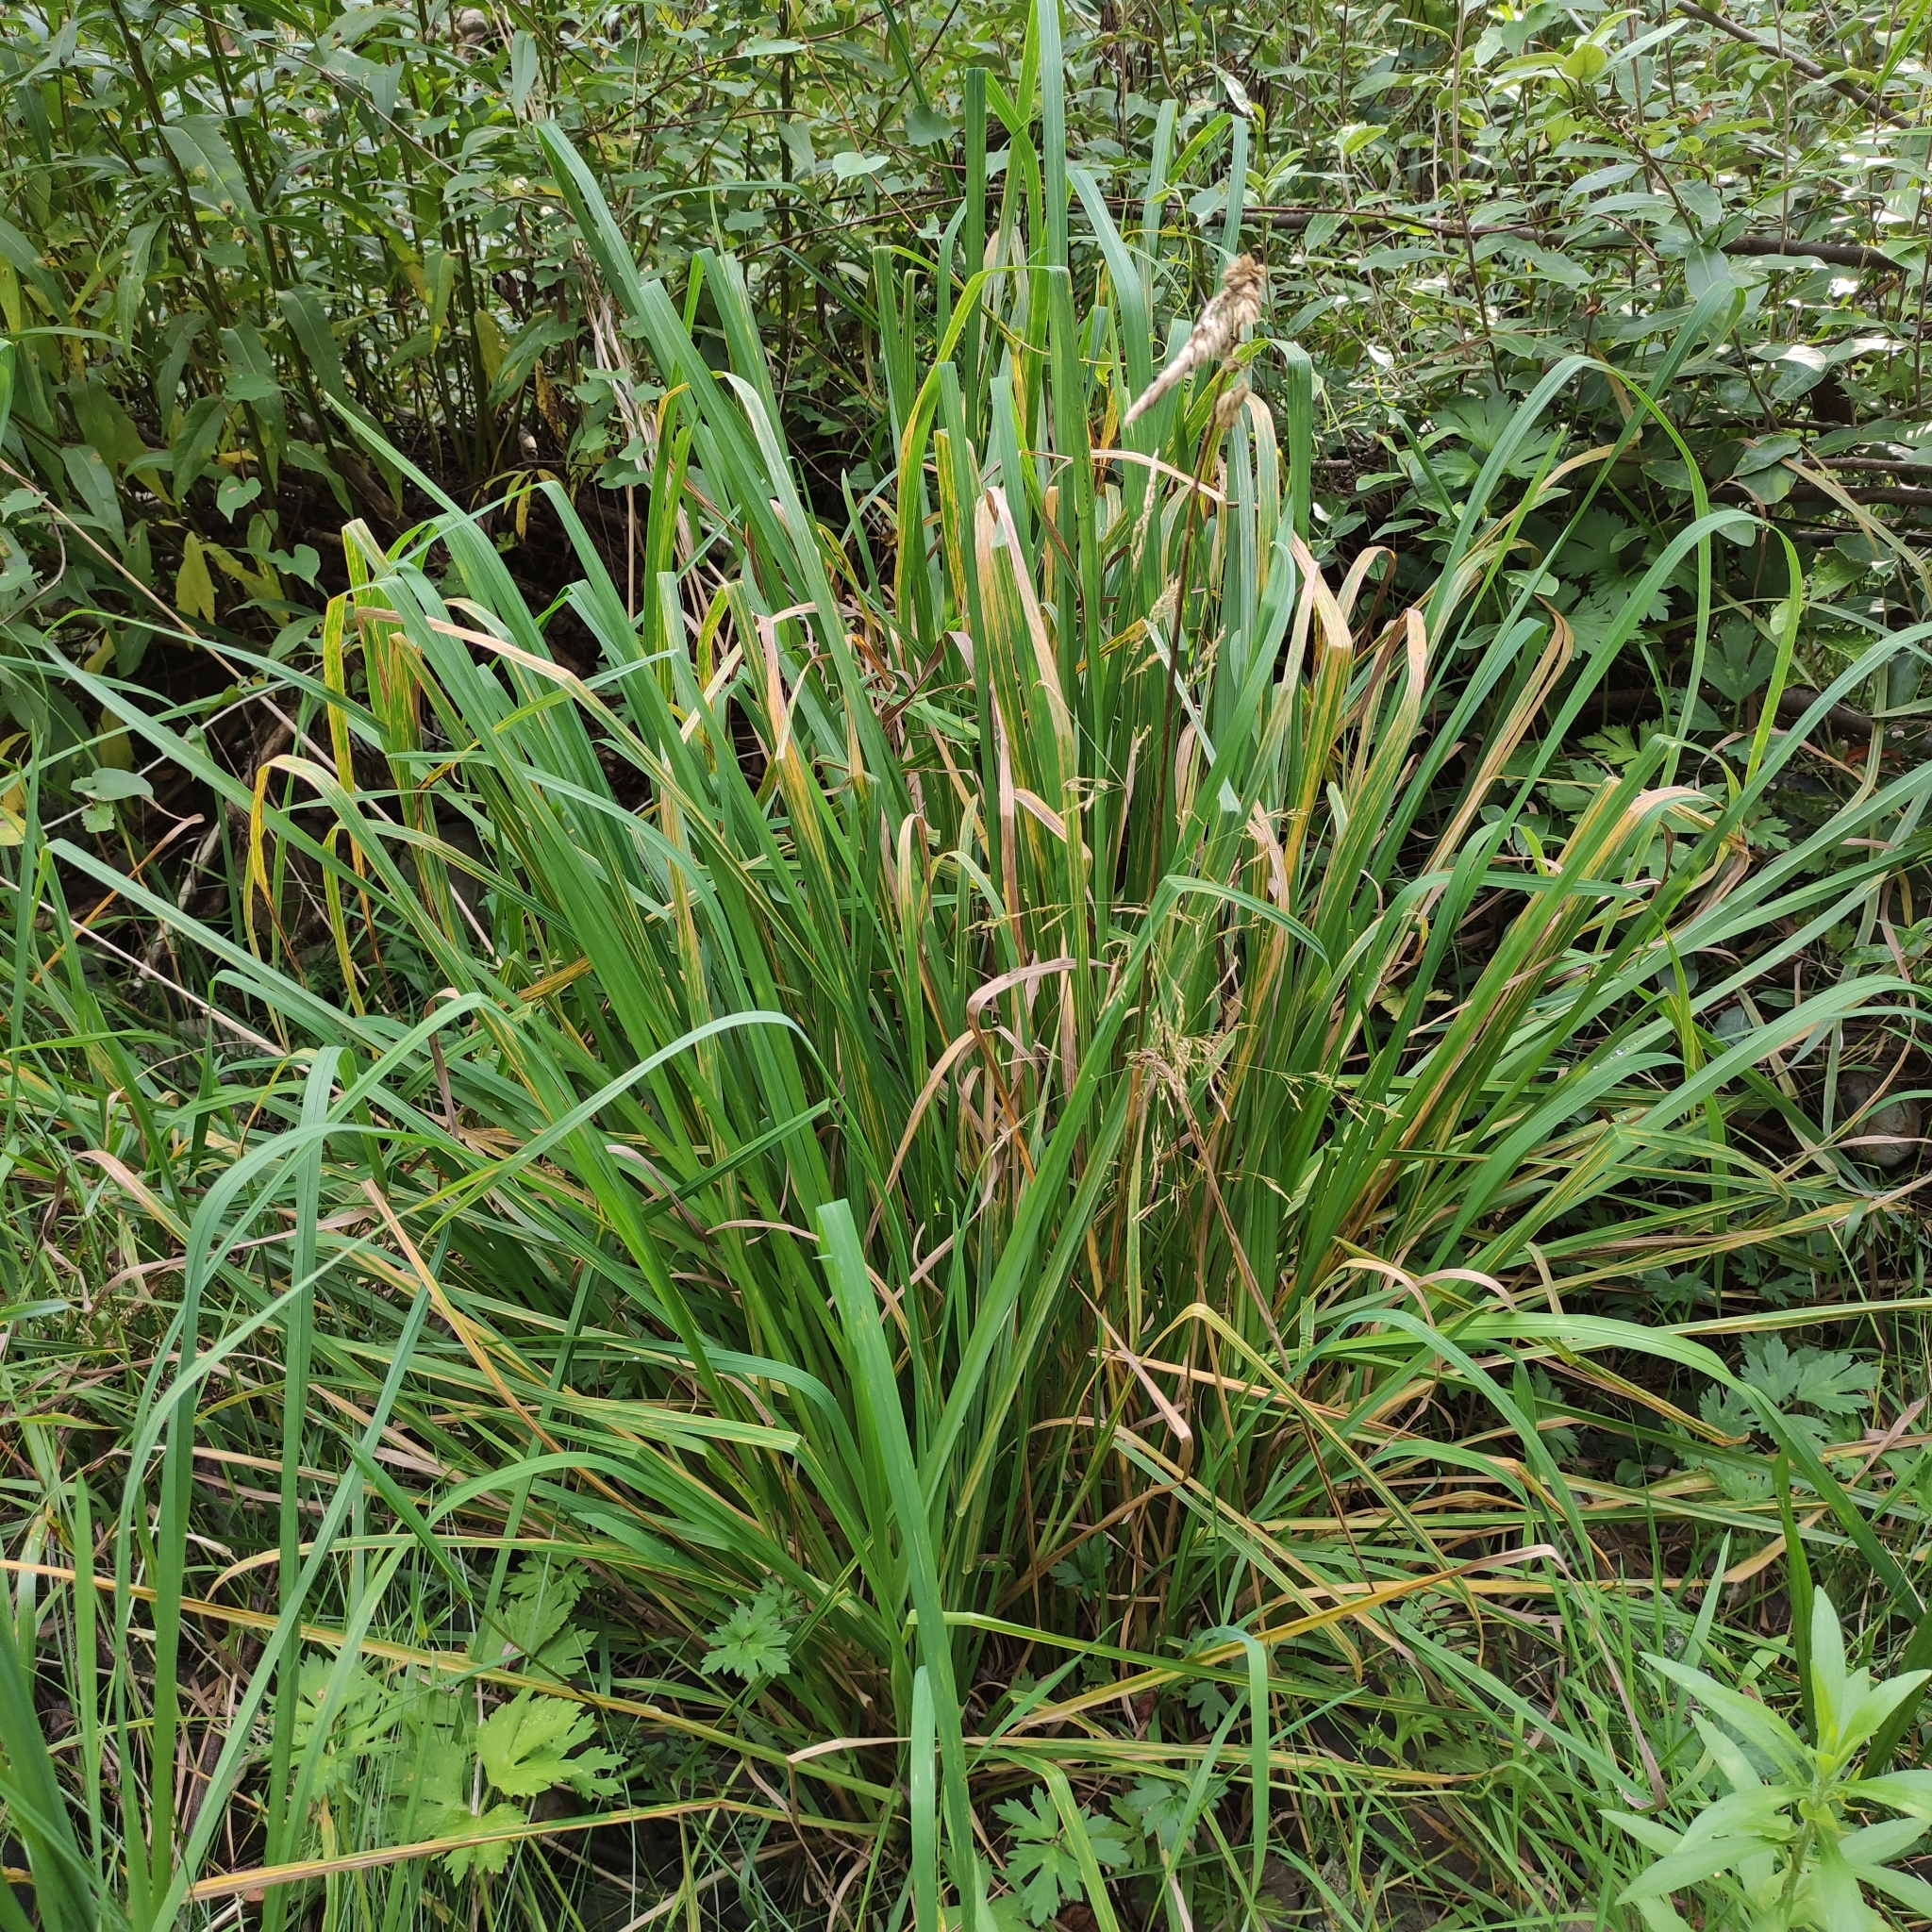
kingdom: Plantae
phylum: Tracheophyta
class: Liliopsida
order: Poales
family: Poaceae
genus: Dactylis
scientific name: Dactylis glomerata
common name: Orchardgrass
